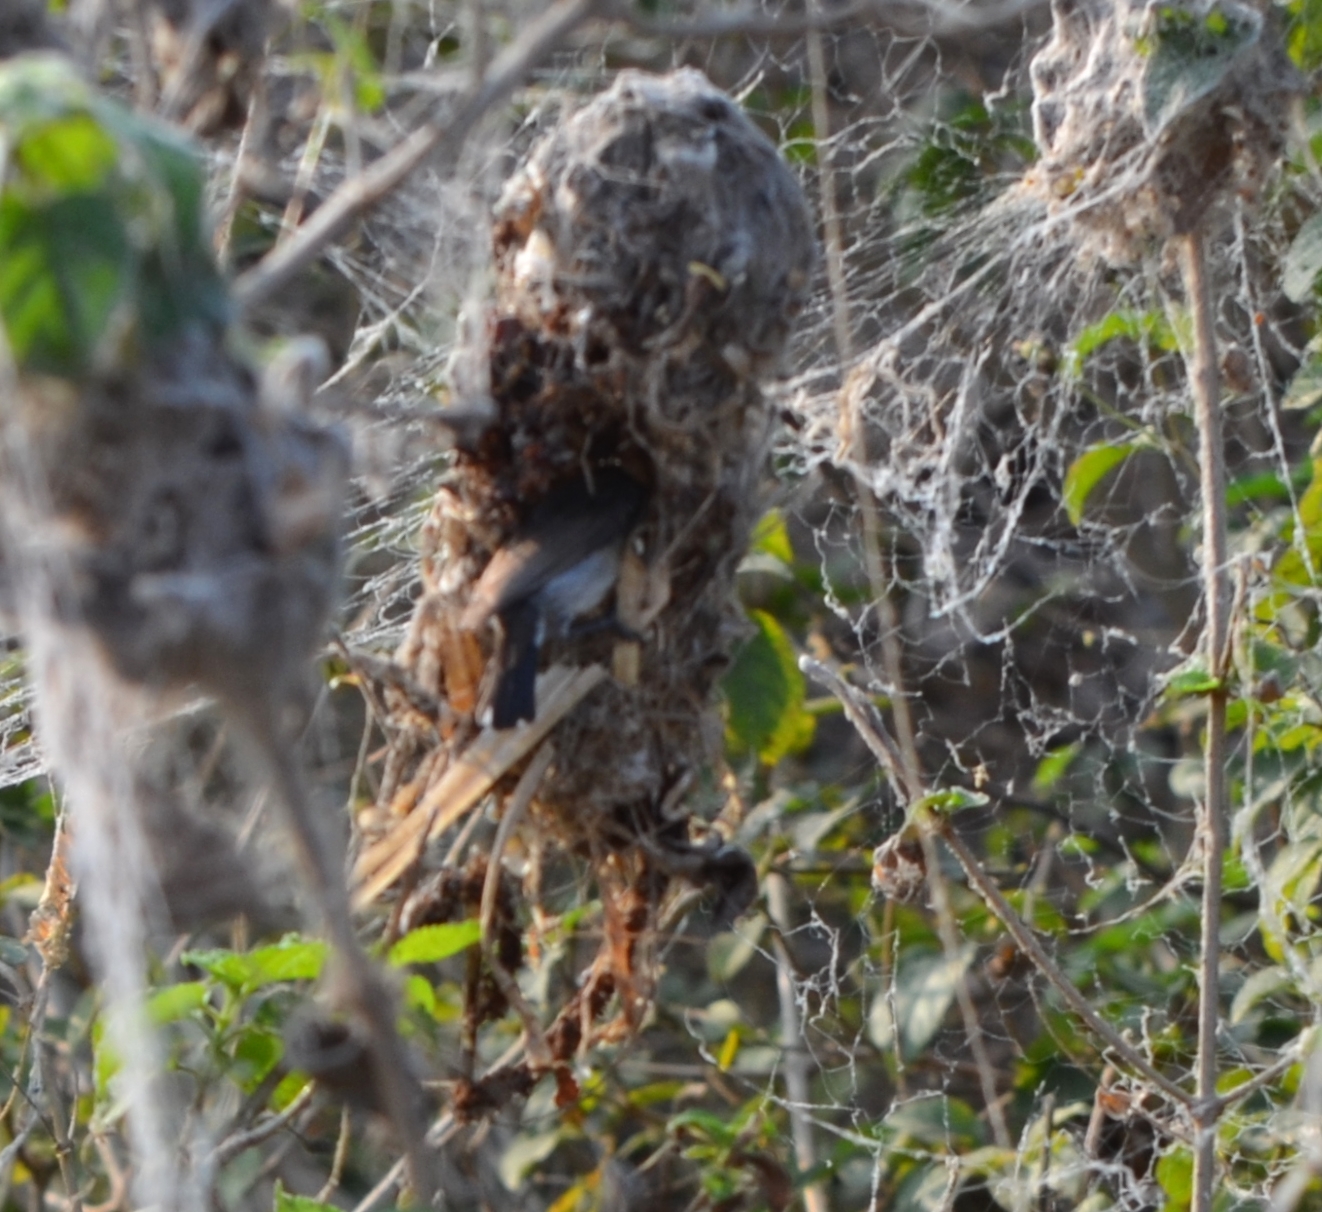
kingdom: Animalia
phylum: Chordata
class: Aves
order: Passeriformes
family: Nectariniidae
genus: Cinnyris
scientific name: Cinnyris asiaticus
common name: Purple sunbird
